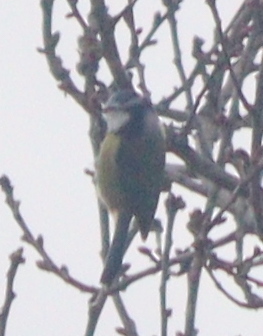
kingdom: Animalia
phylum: Chordata
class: Aves
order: Passeriformes
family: Paridae
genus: Cyanistes
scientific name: Cyanistes caeruleus
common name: Eurasian blue tit
